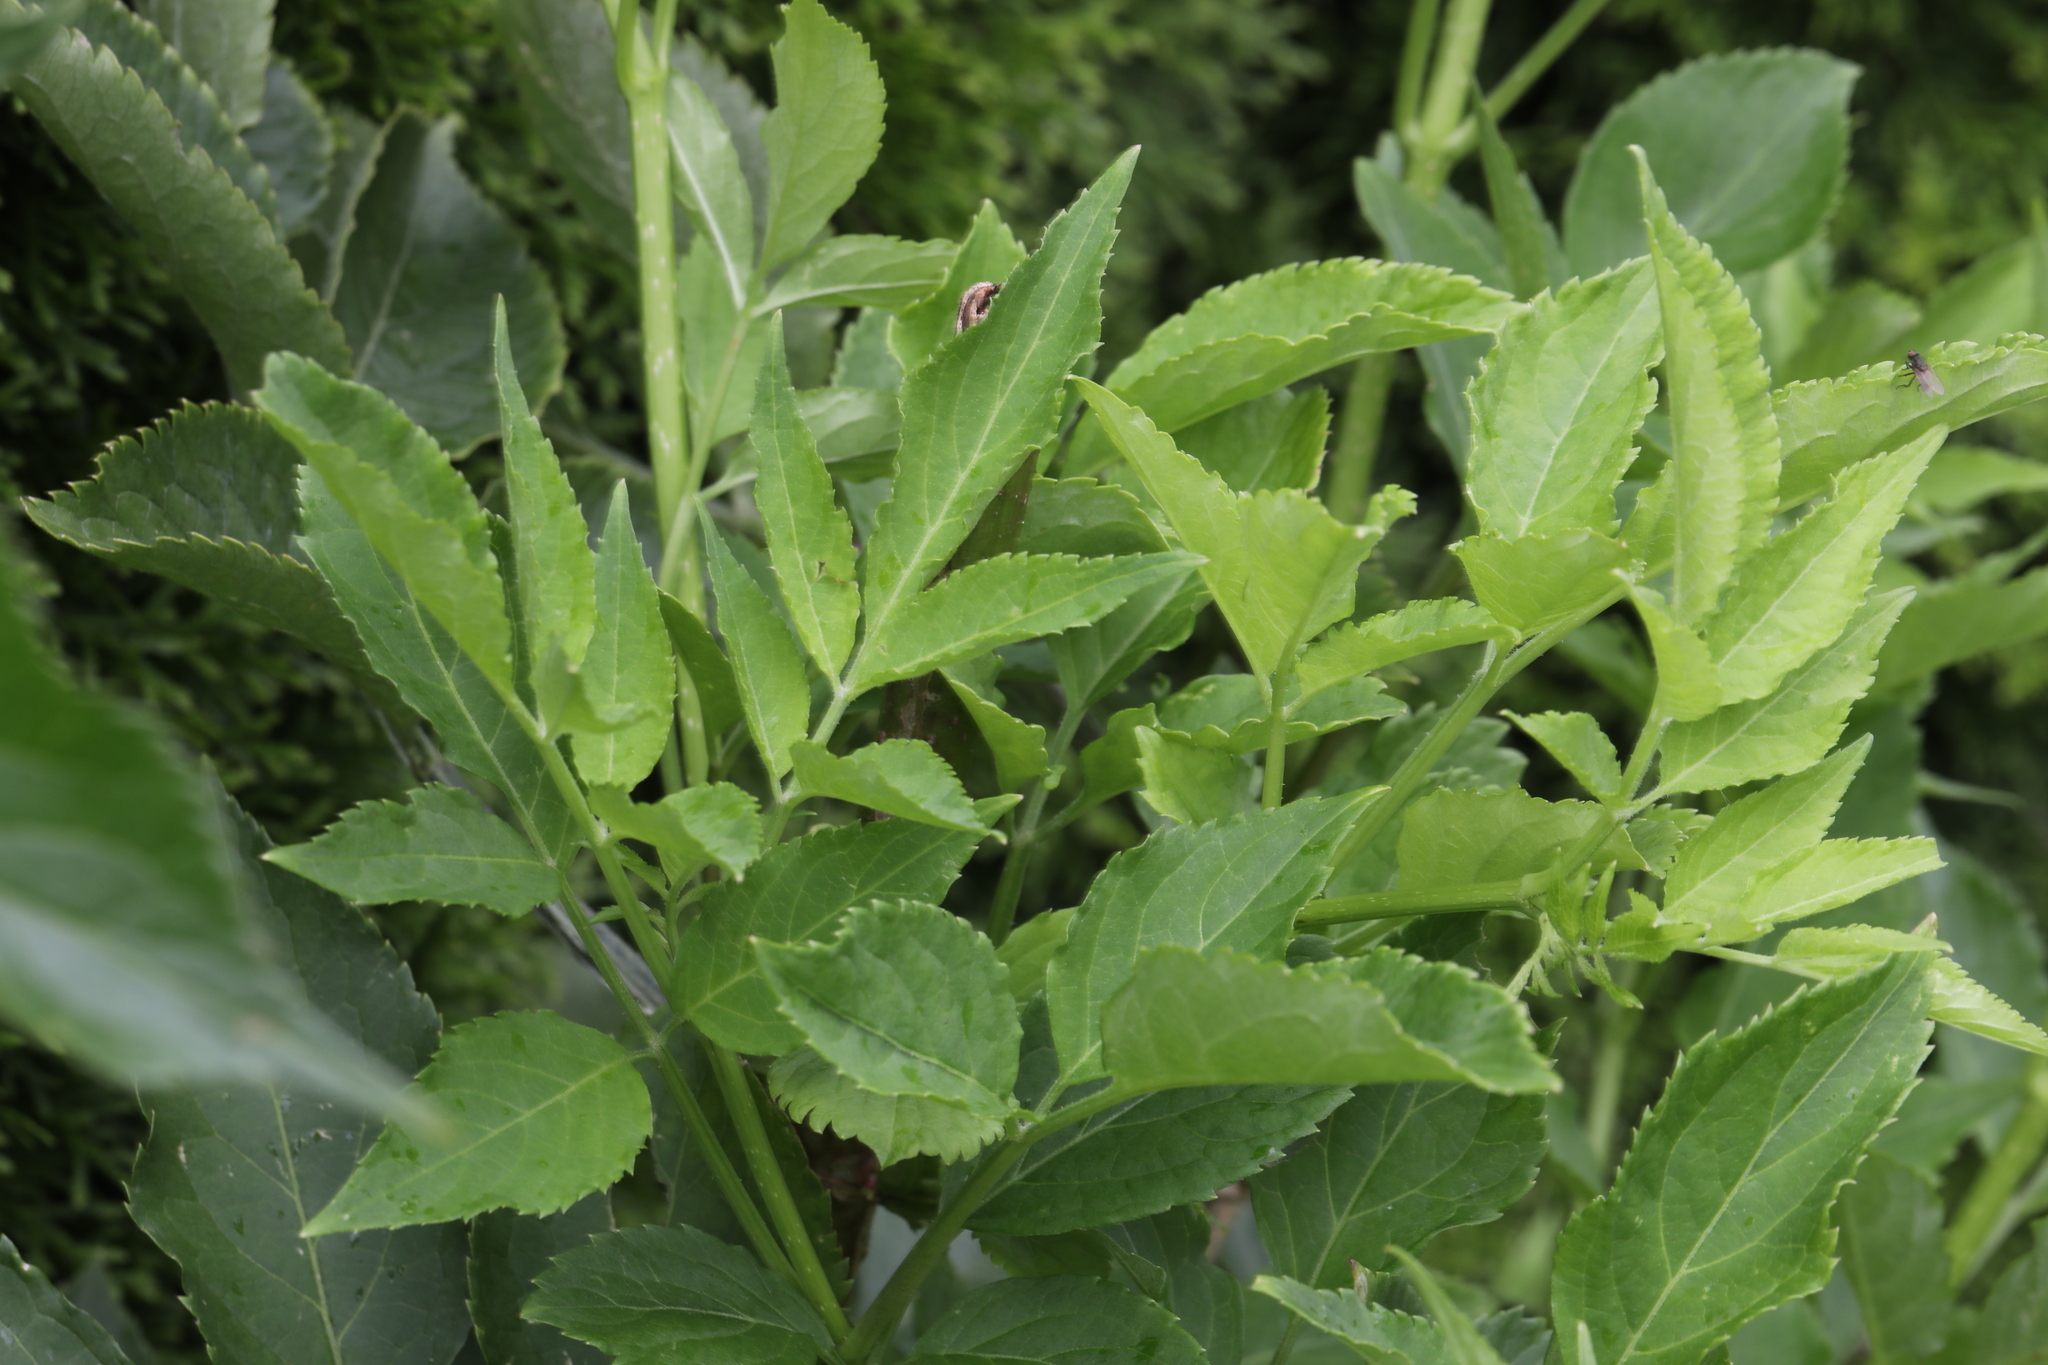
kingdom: Plantae
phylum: Tracheophyta
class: Magnoliopsida
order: Dipsacales
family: Viburnaceae
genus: Sambucus
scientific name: Sambucus nigra
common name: Elder
